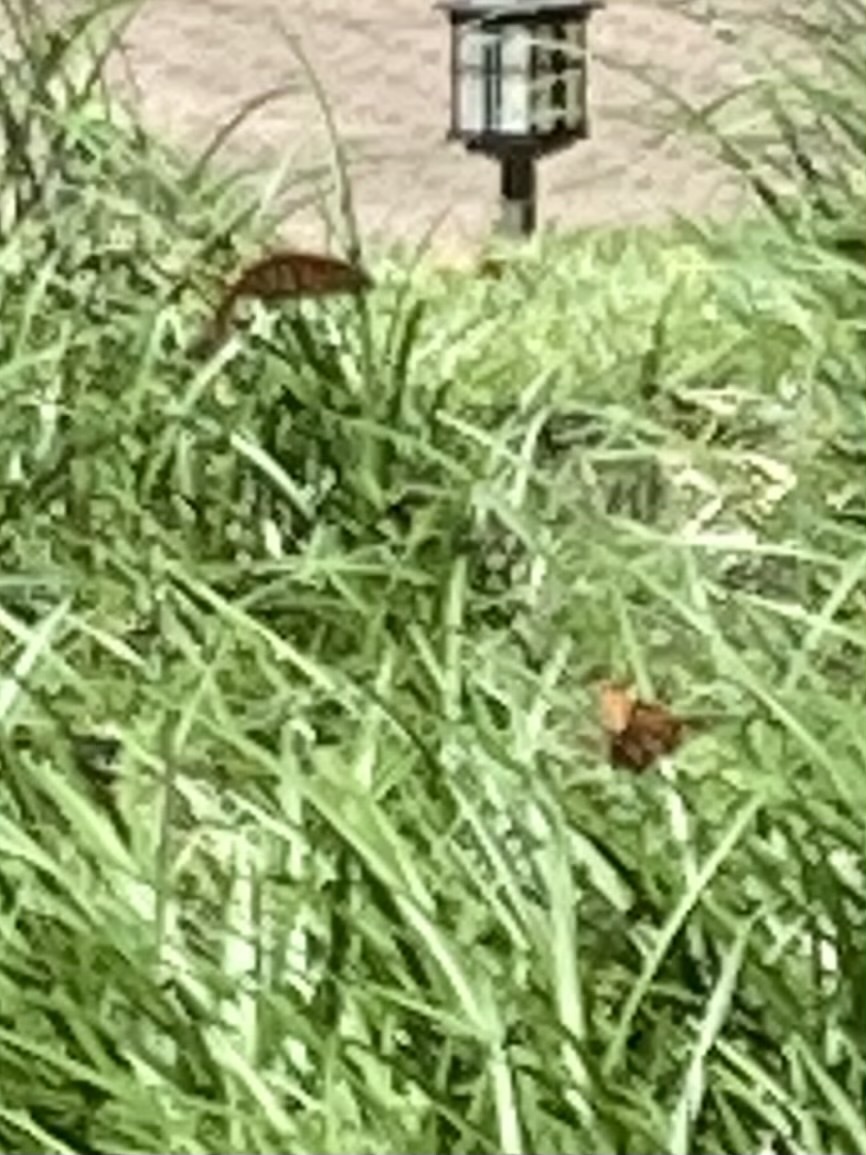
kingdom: Animalia
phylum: Arthropoda
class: Insecta
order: Lepidoptera
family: Nymphalidae
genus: Danaus
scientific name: Danaus plexippus
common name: Monarch
